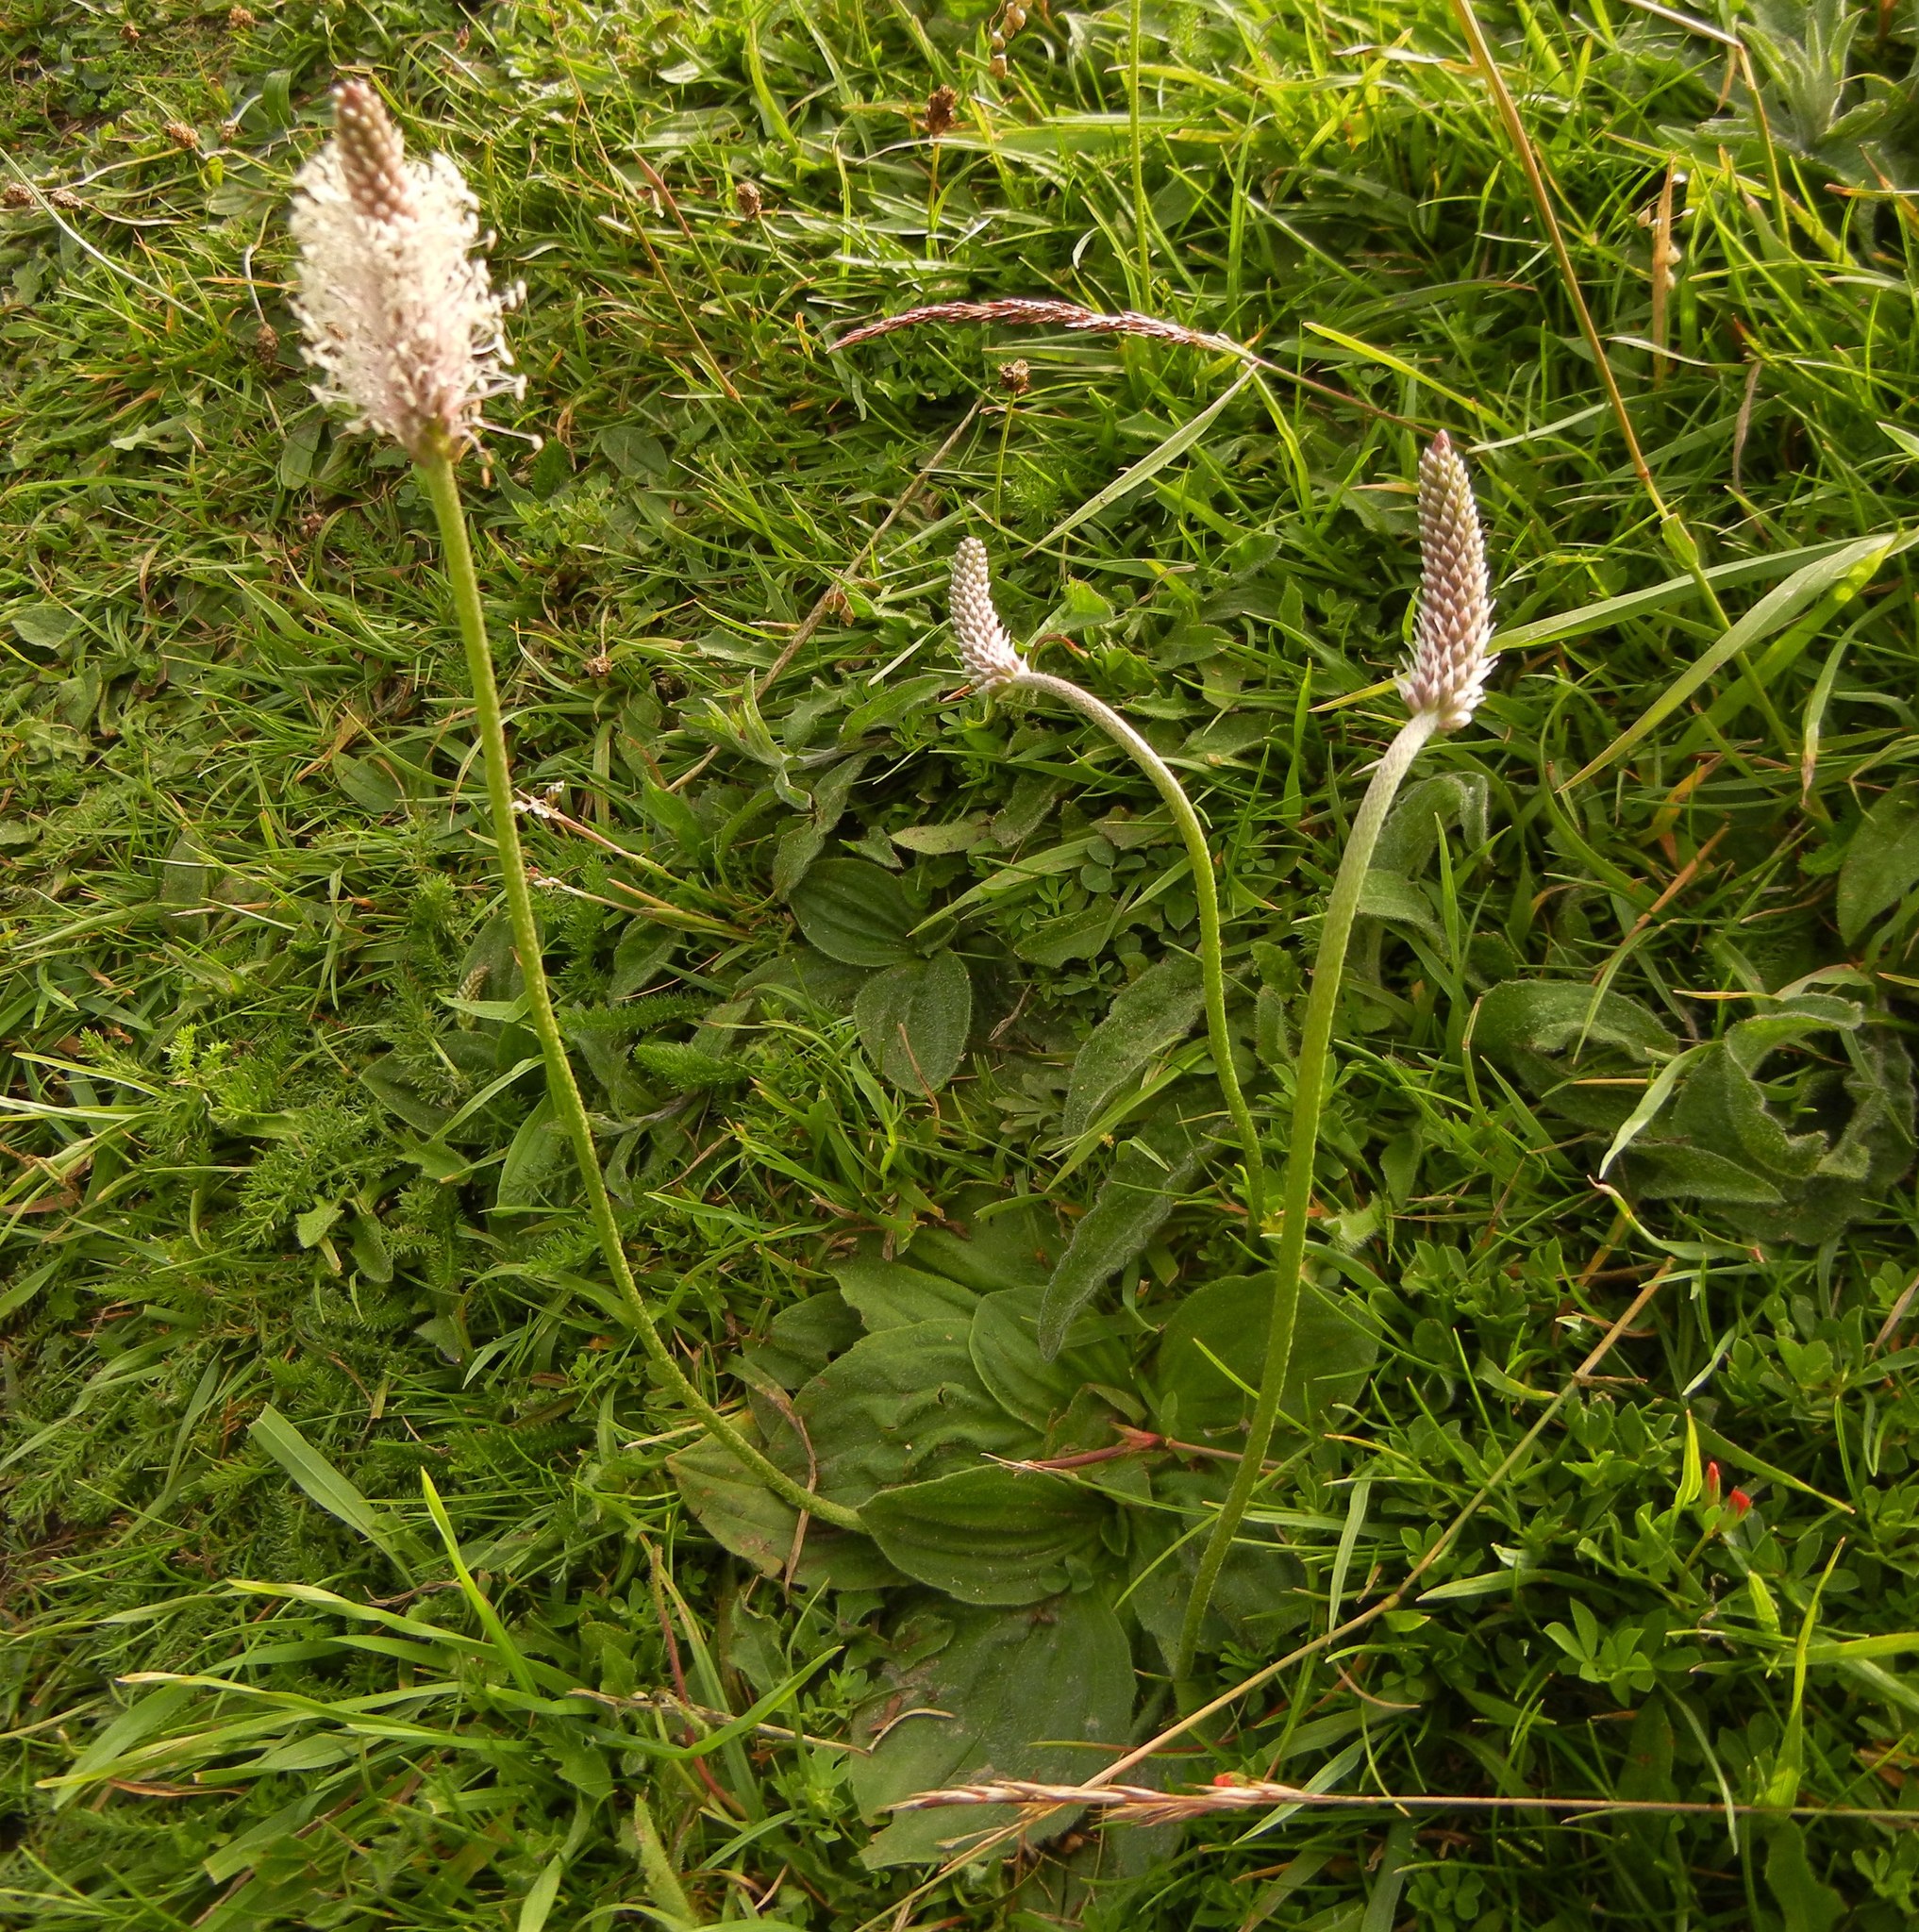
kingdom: Plantae
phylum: Tracheophyta
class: Magnoliopsida
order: Lamiales
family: Plantaginaceae
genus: Plantago
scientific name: Plantago media
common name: Hoary plantain
